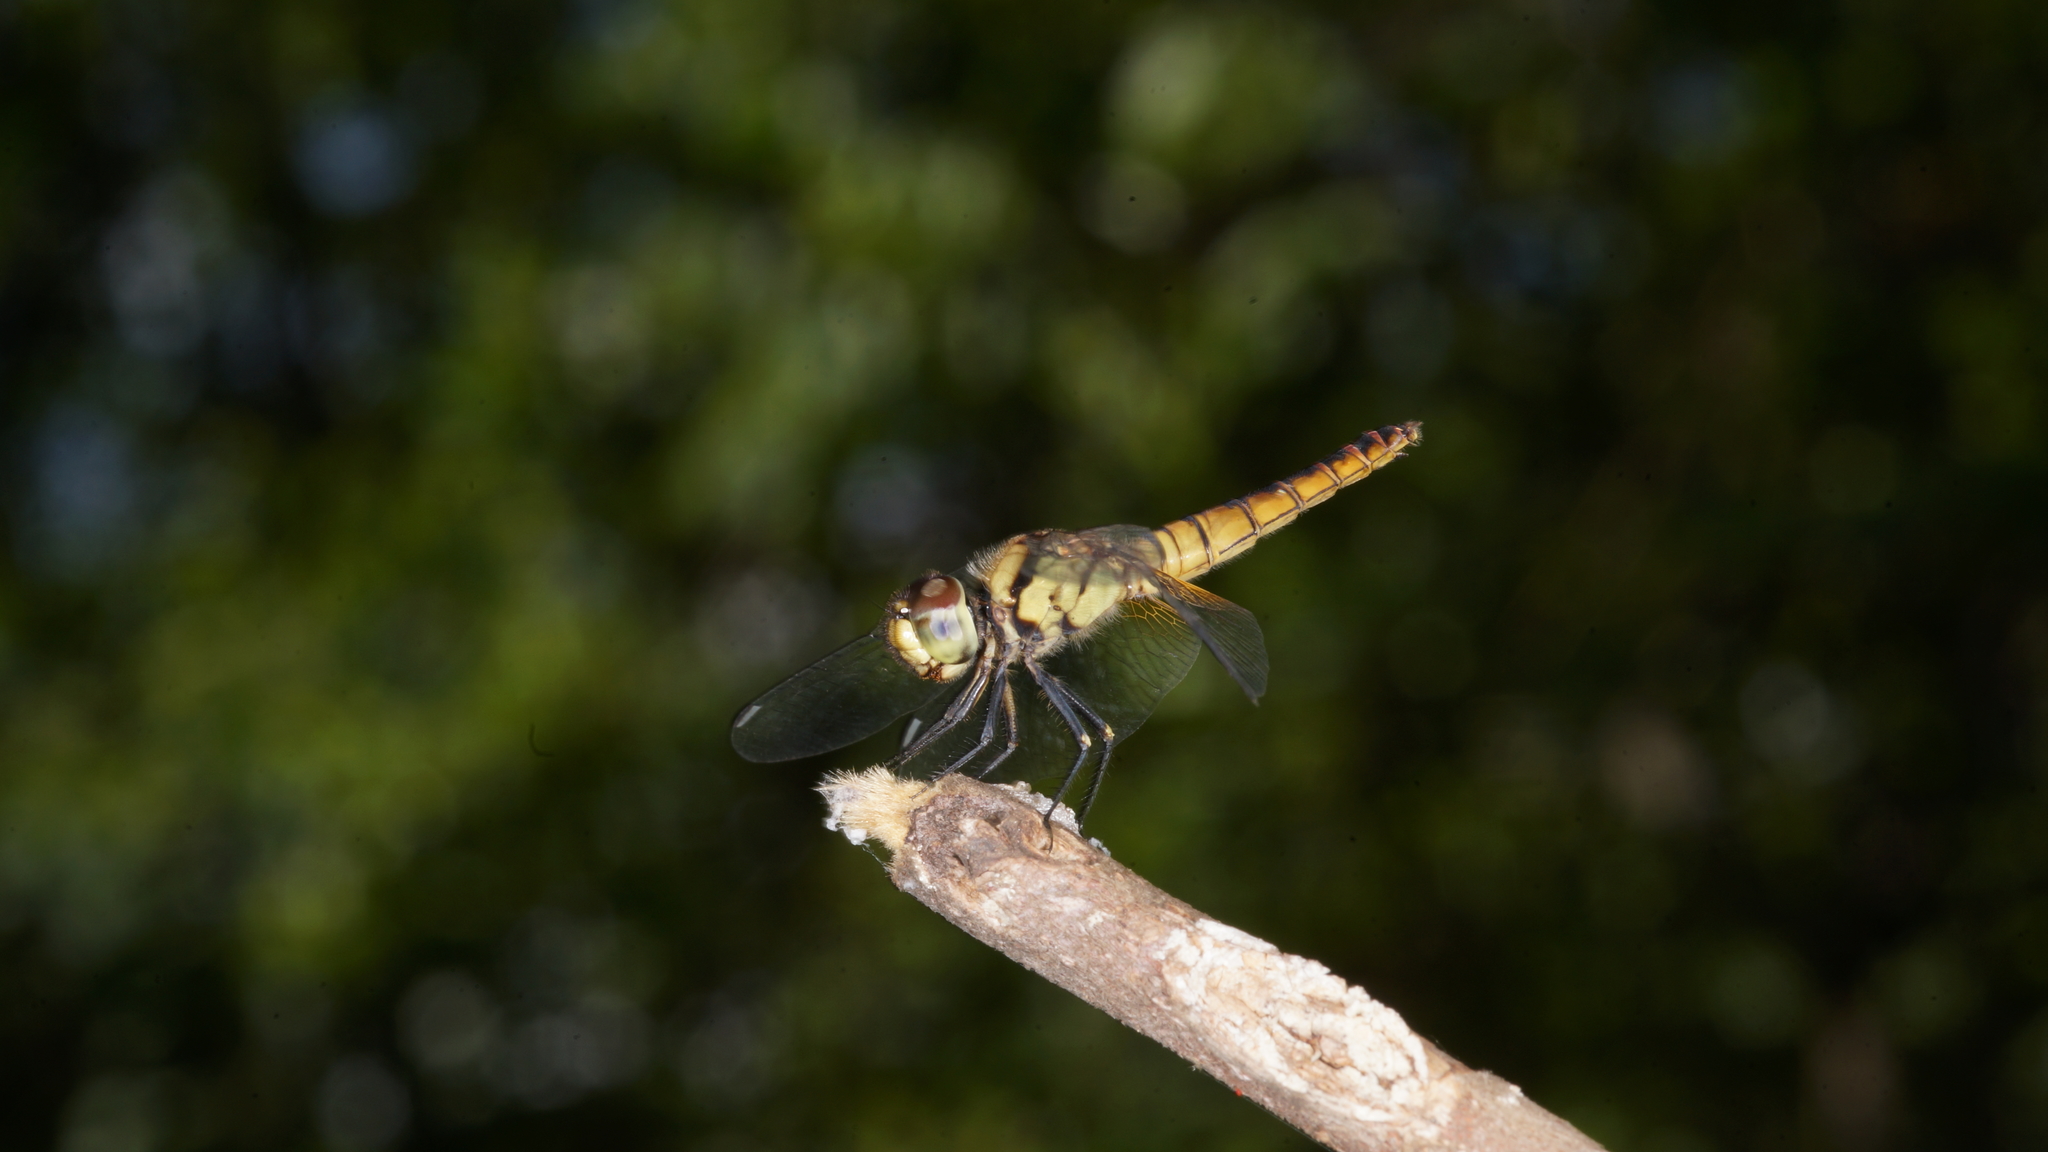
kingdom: Animalia
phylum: Arthropoda
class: Insecta
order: Odonata
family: Libellulidae
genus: Aethriamanta
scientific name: Aethriamanta brevipennis
